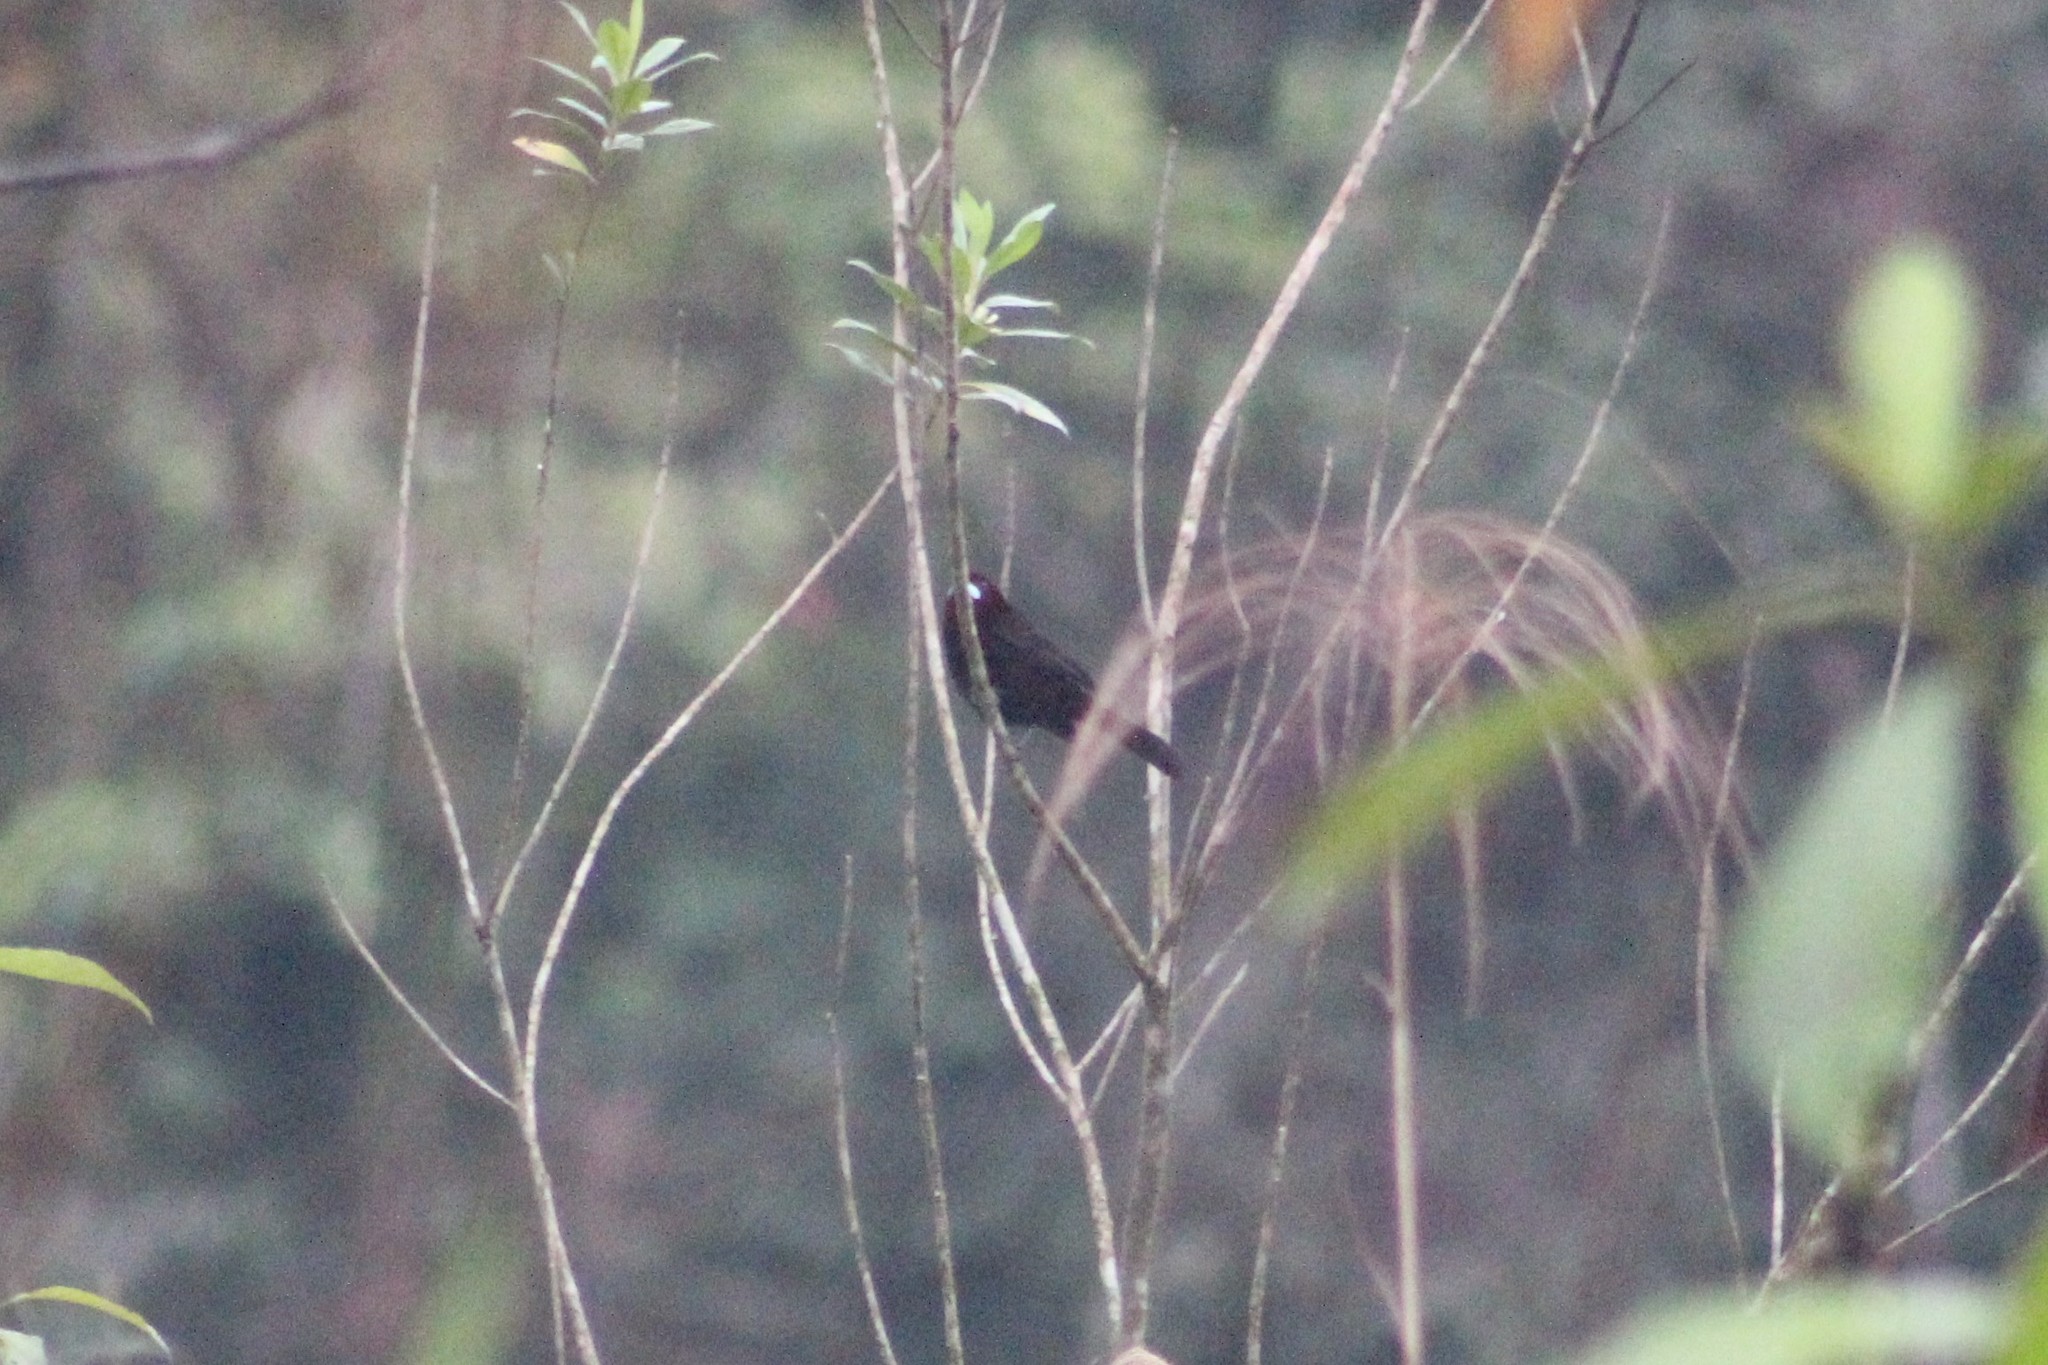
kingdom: Animalia
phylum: Chordata
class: Aves
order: Passeriformes
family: Thraupidae
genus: Ramphocelus
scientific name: Ramphocelus carbo
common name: Silver-beaked tanager
